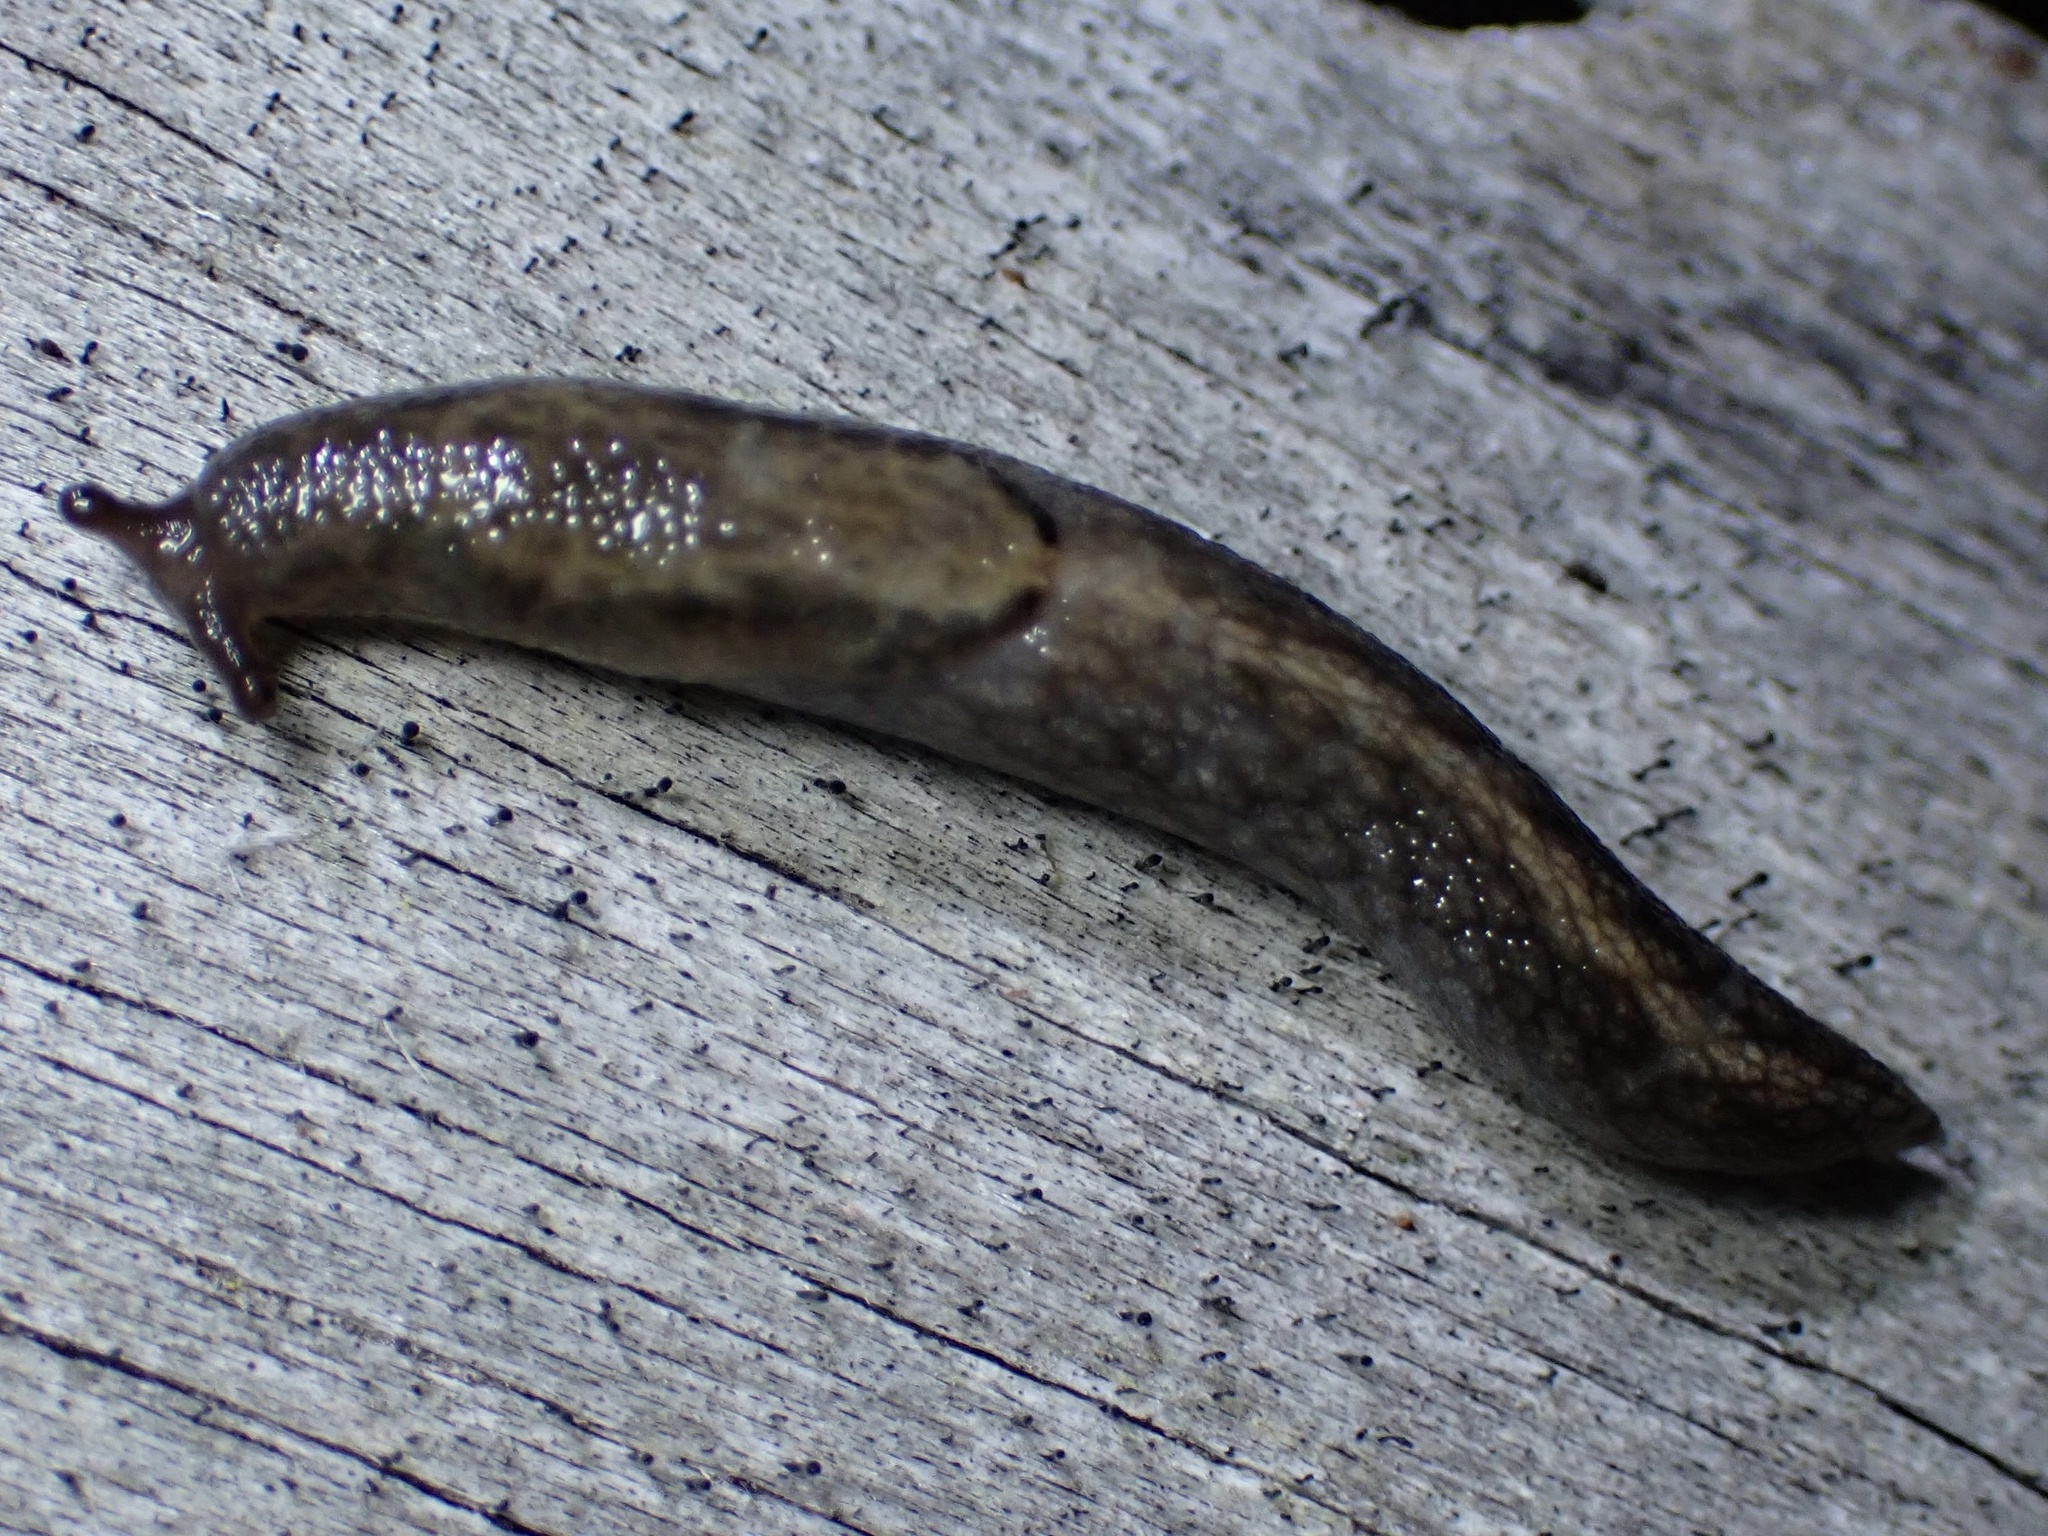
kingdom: Animalia
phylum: Mollusca
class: Gastropoda
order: Stylommatophora
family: Ariolimacidae
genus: Prophysaon
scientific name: Prophysaon andersonii
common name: Reticulate taildropper
